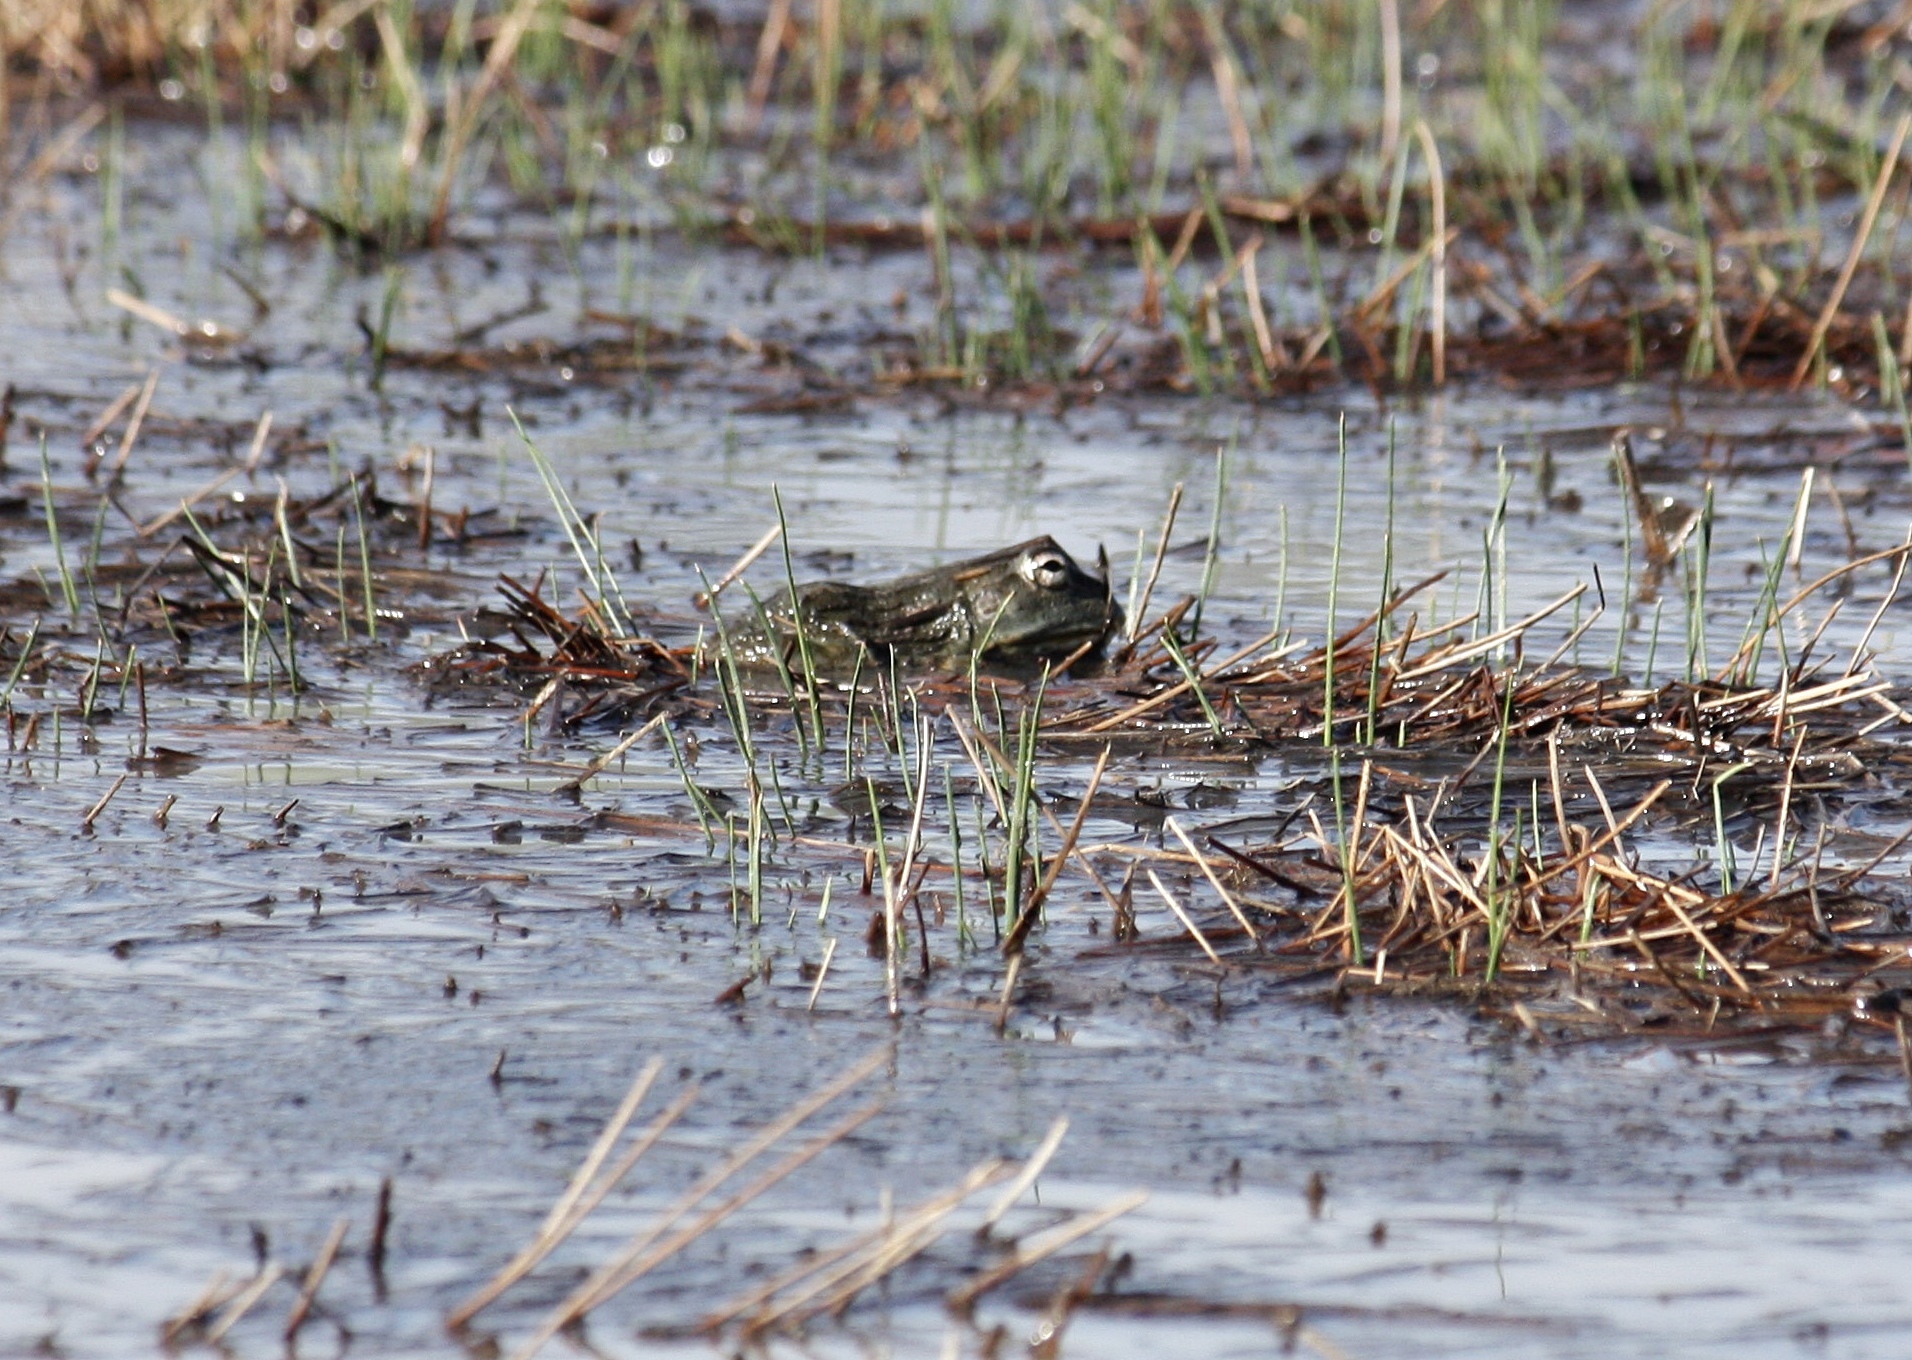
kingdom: Animalia
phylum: Chordata
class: Amphibia
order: Anura
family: Pyxicephalidae
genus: Pyxicephalus
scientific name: Pyxicephalus adspersus
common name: African bullfrog
